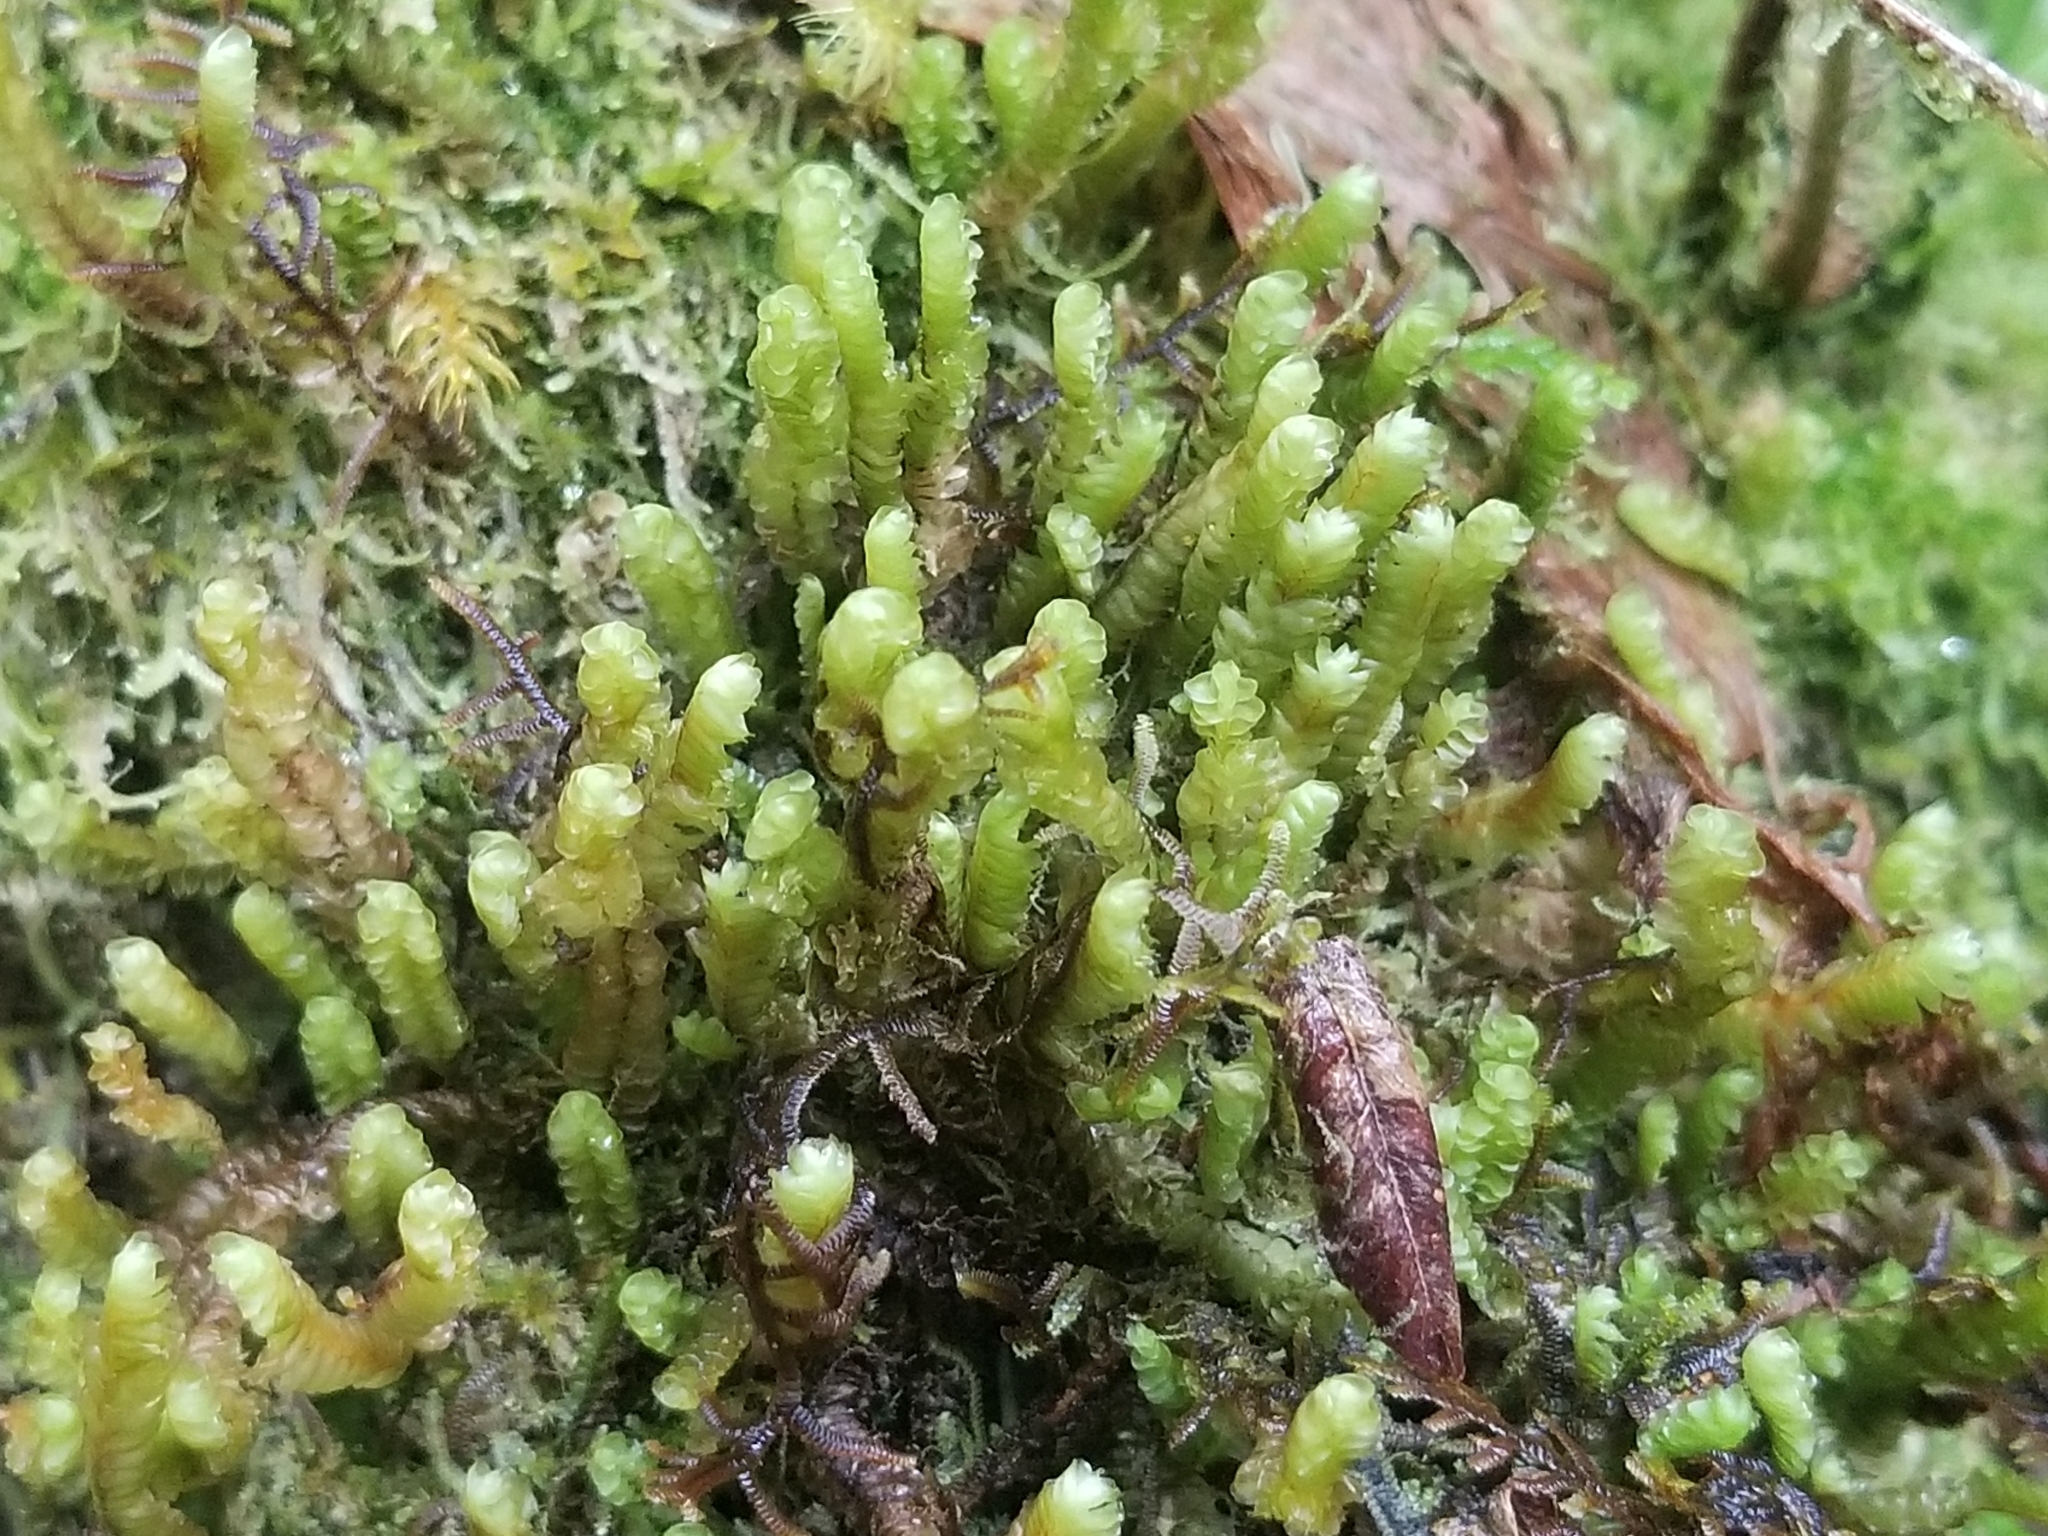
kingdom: Plantae
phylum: Marchantiophyta
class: Jungermanniopsida
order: Jungermanniales
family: Adelanthaceae
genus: Cuspidatula
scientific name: Cuspidatula
